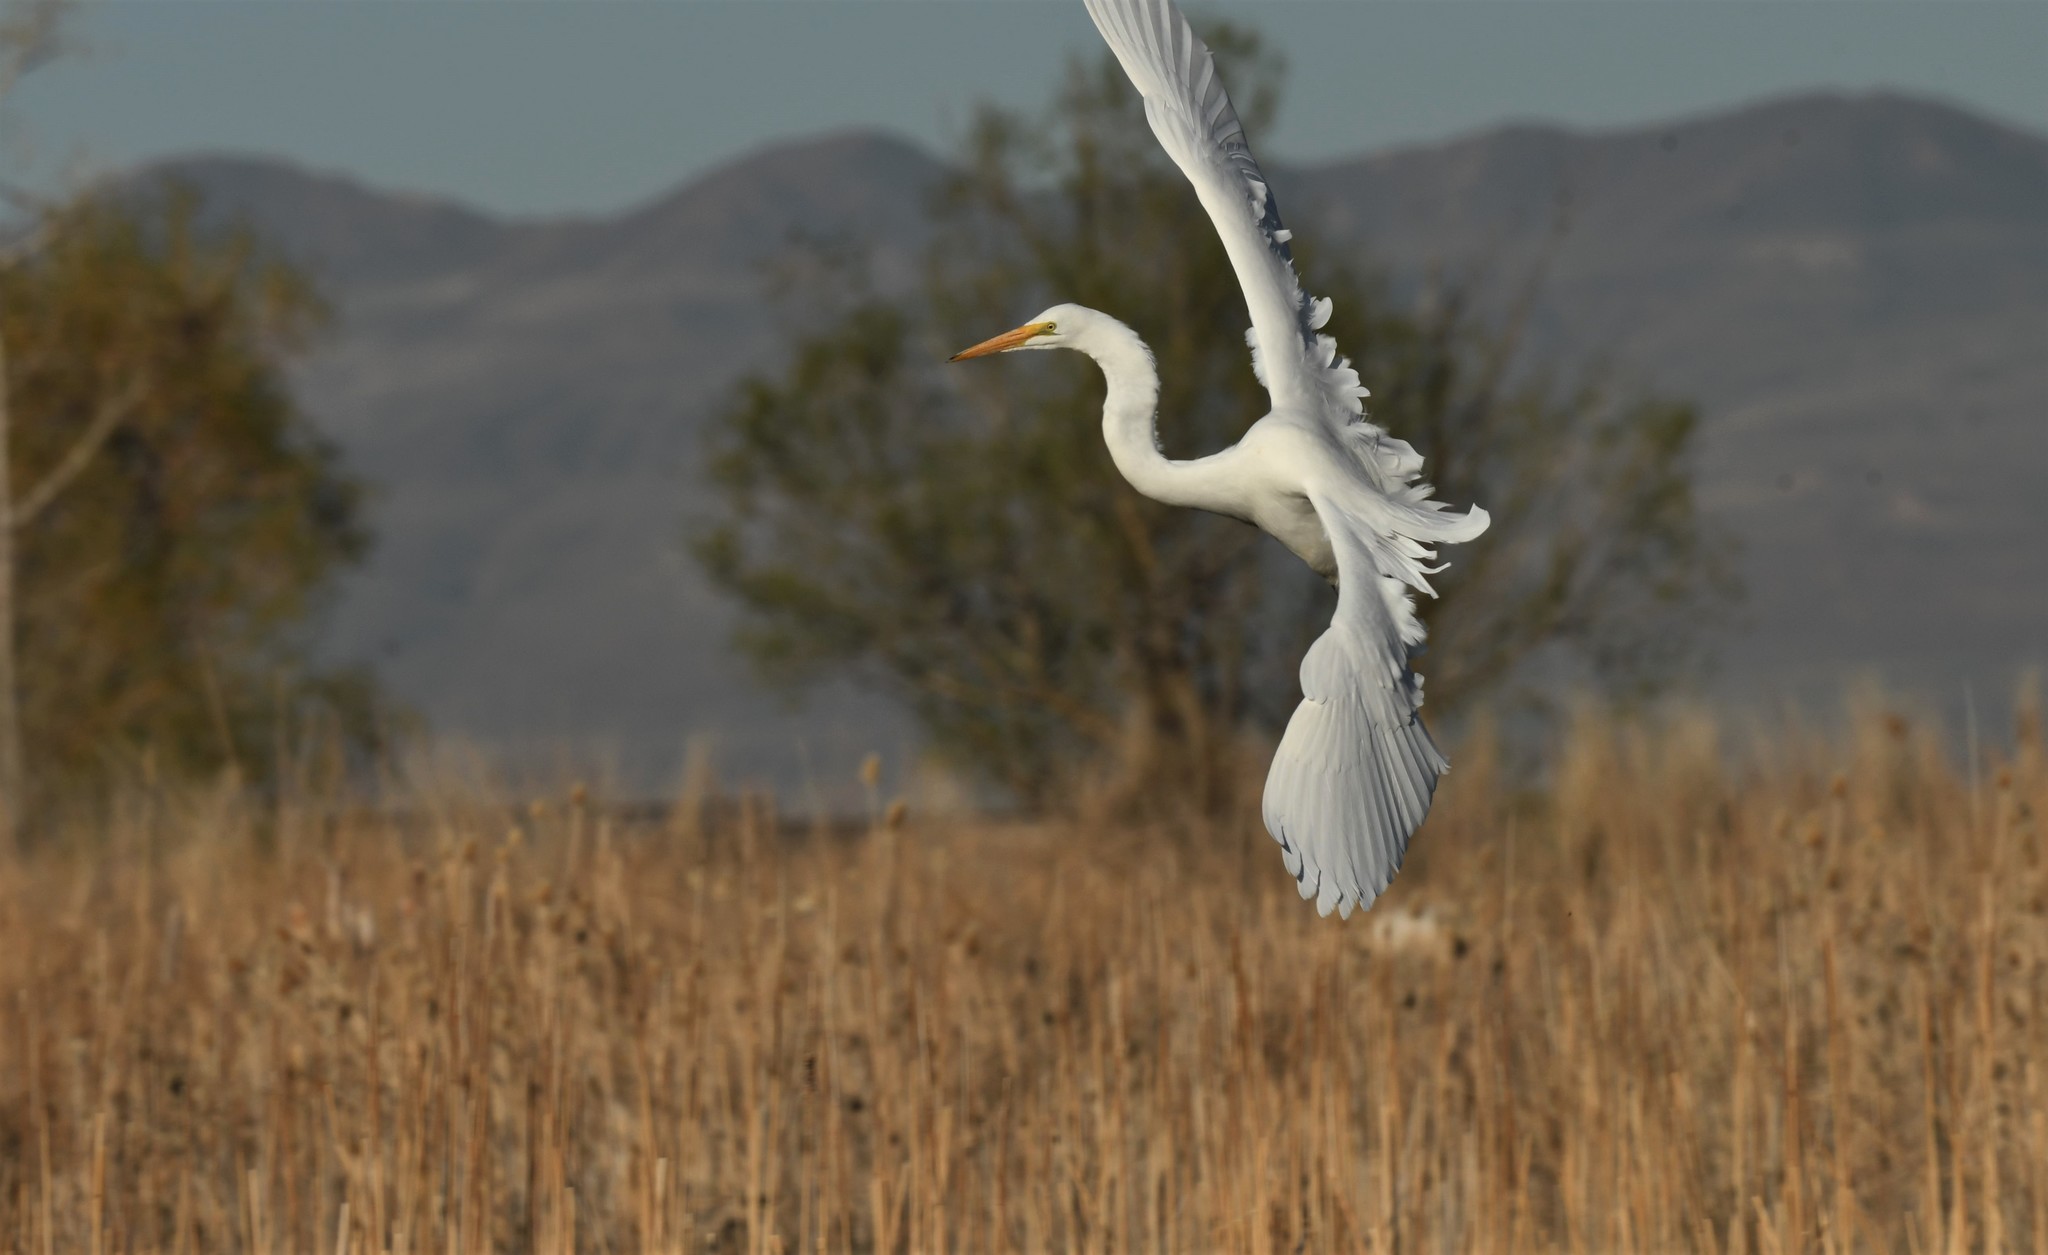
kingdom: Animalia
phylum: Chordata
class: Aves
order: Pelecaniformes
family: Ardeidae
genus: Ardea
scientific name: Ardea alba
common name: Great egret
